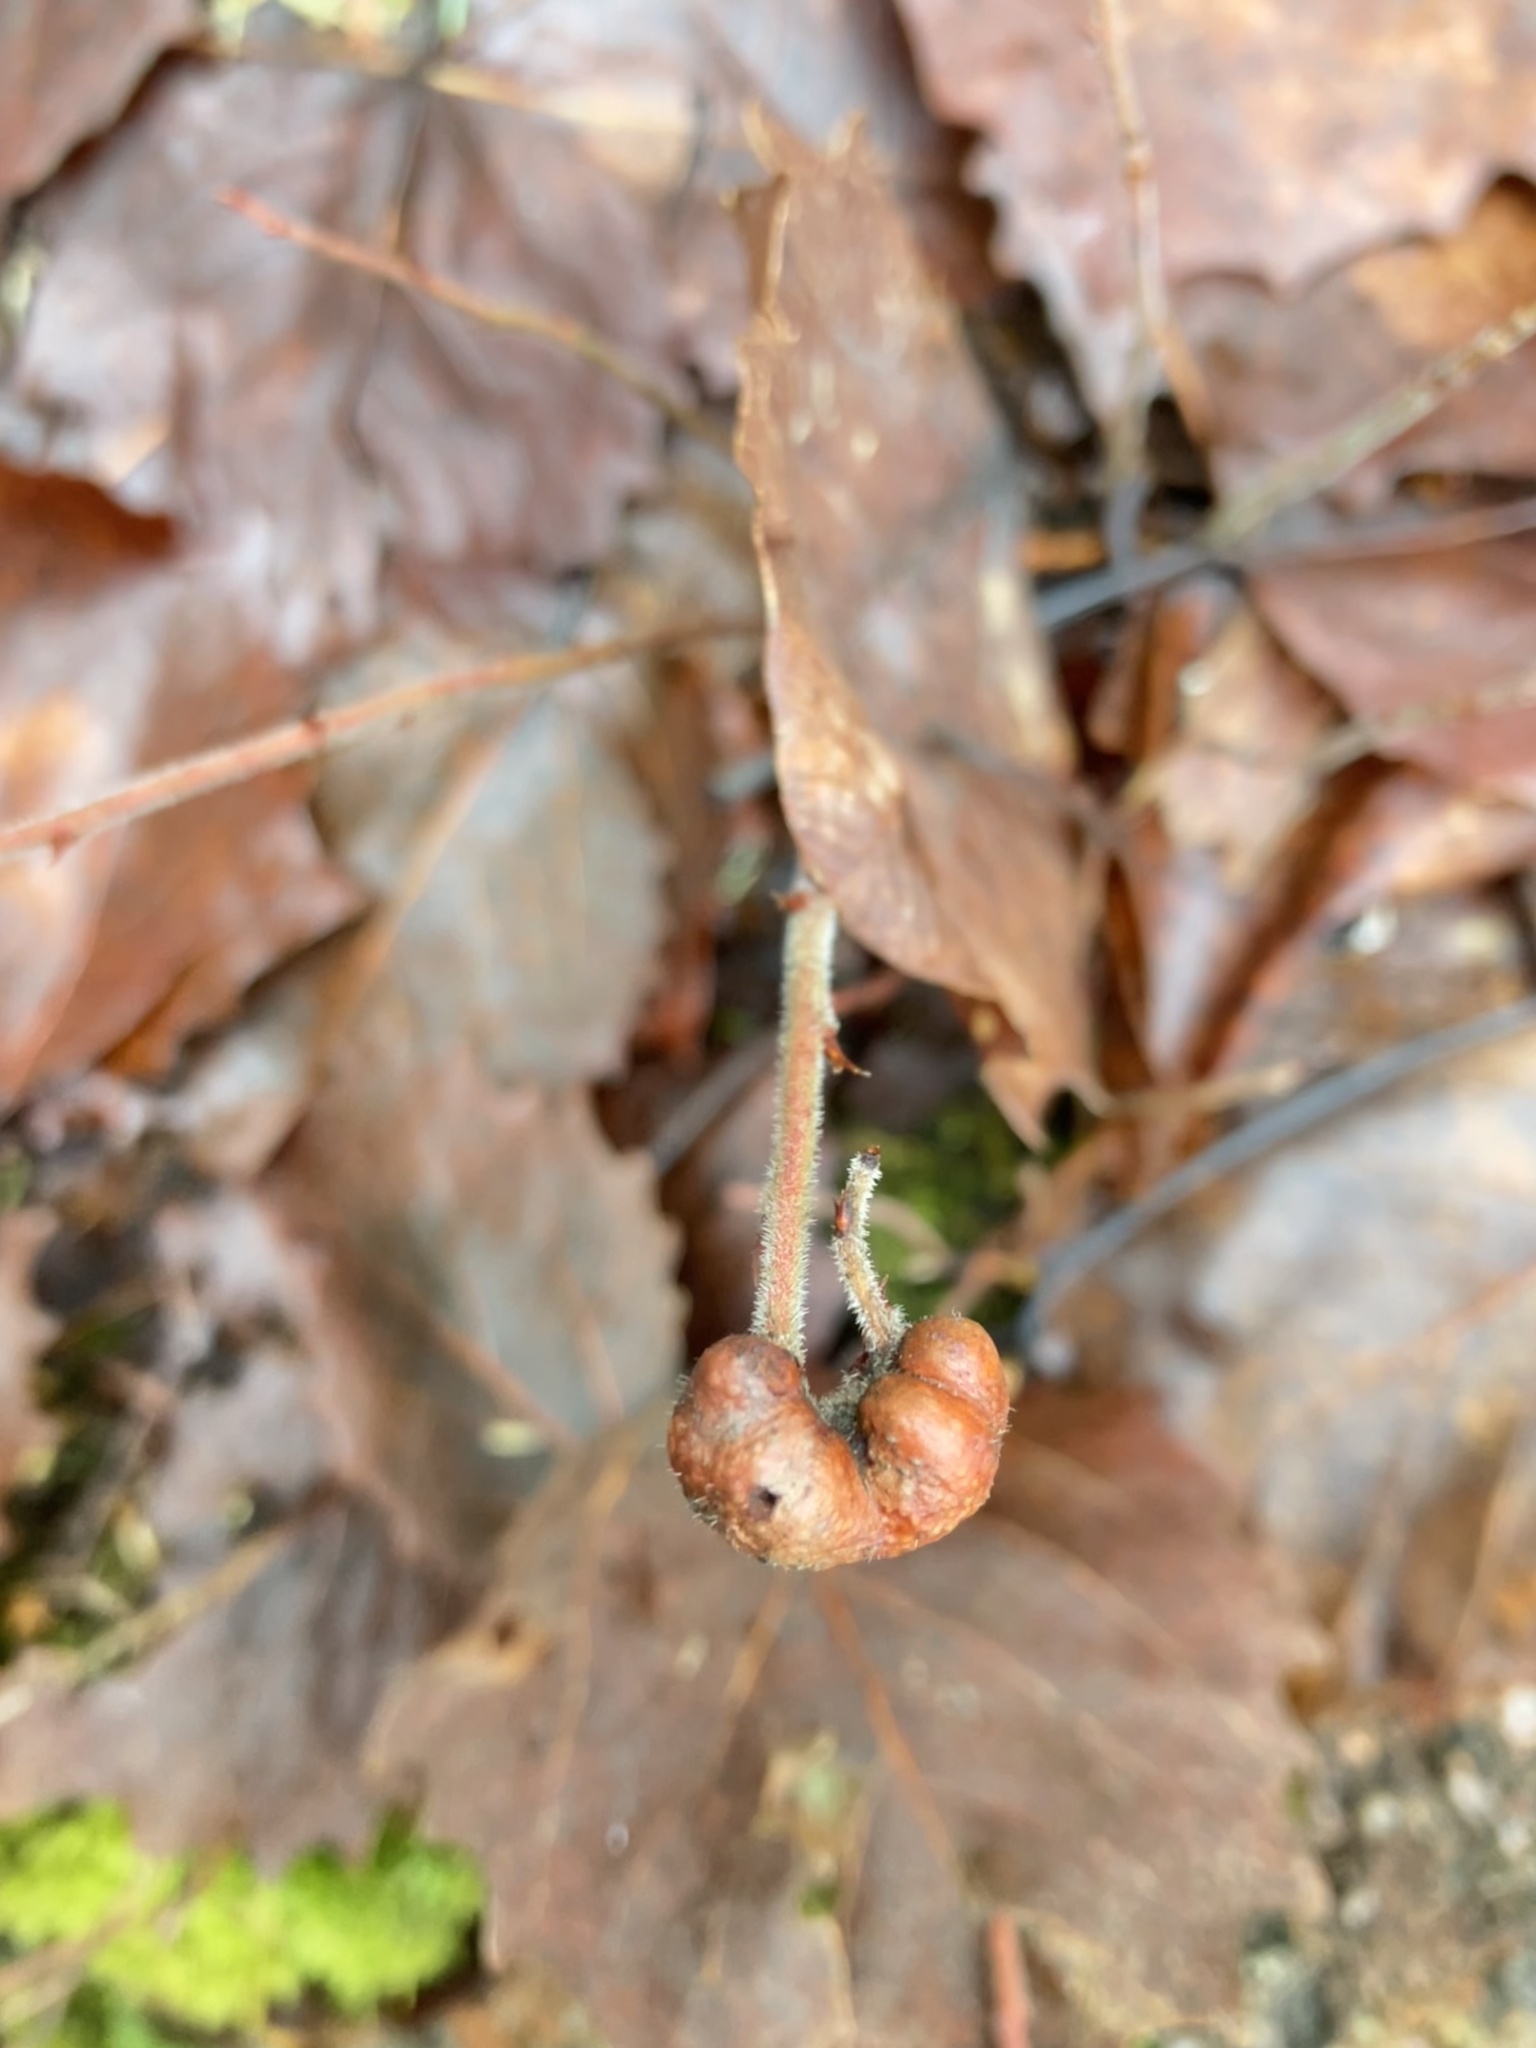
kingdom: Animalia
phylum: Arthropoda
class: Insecta
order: Hymenoptera
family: Pteromalidae
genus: Hemadas
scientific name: Hemadas nubilipennis
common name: Blueberry stem gall wasp
